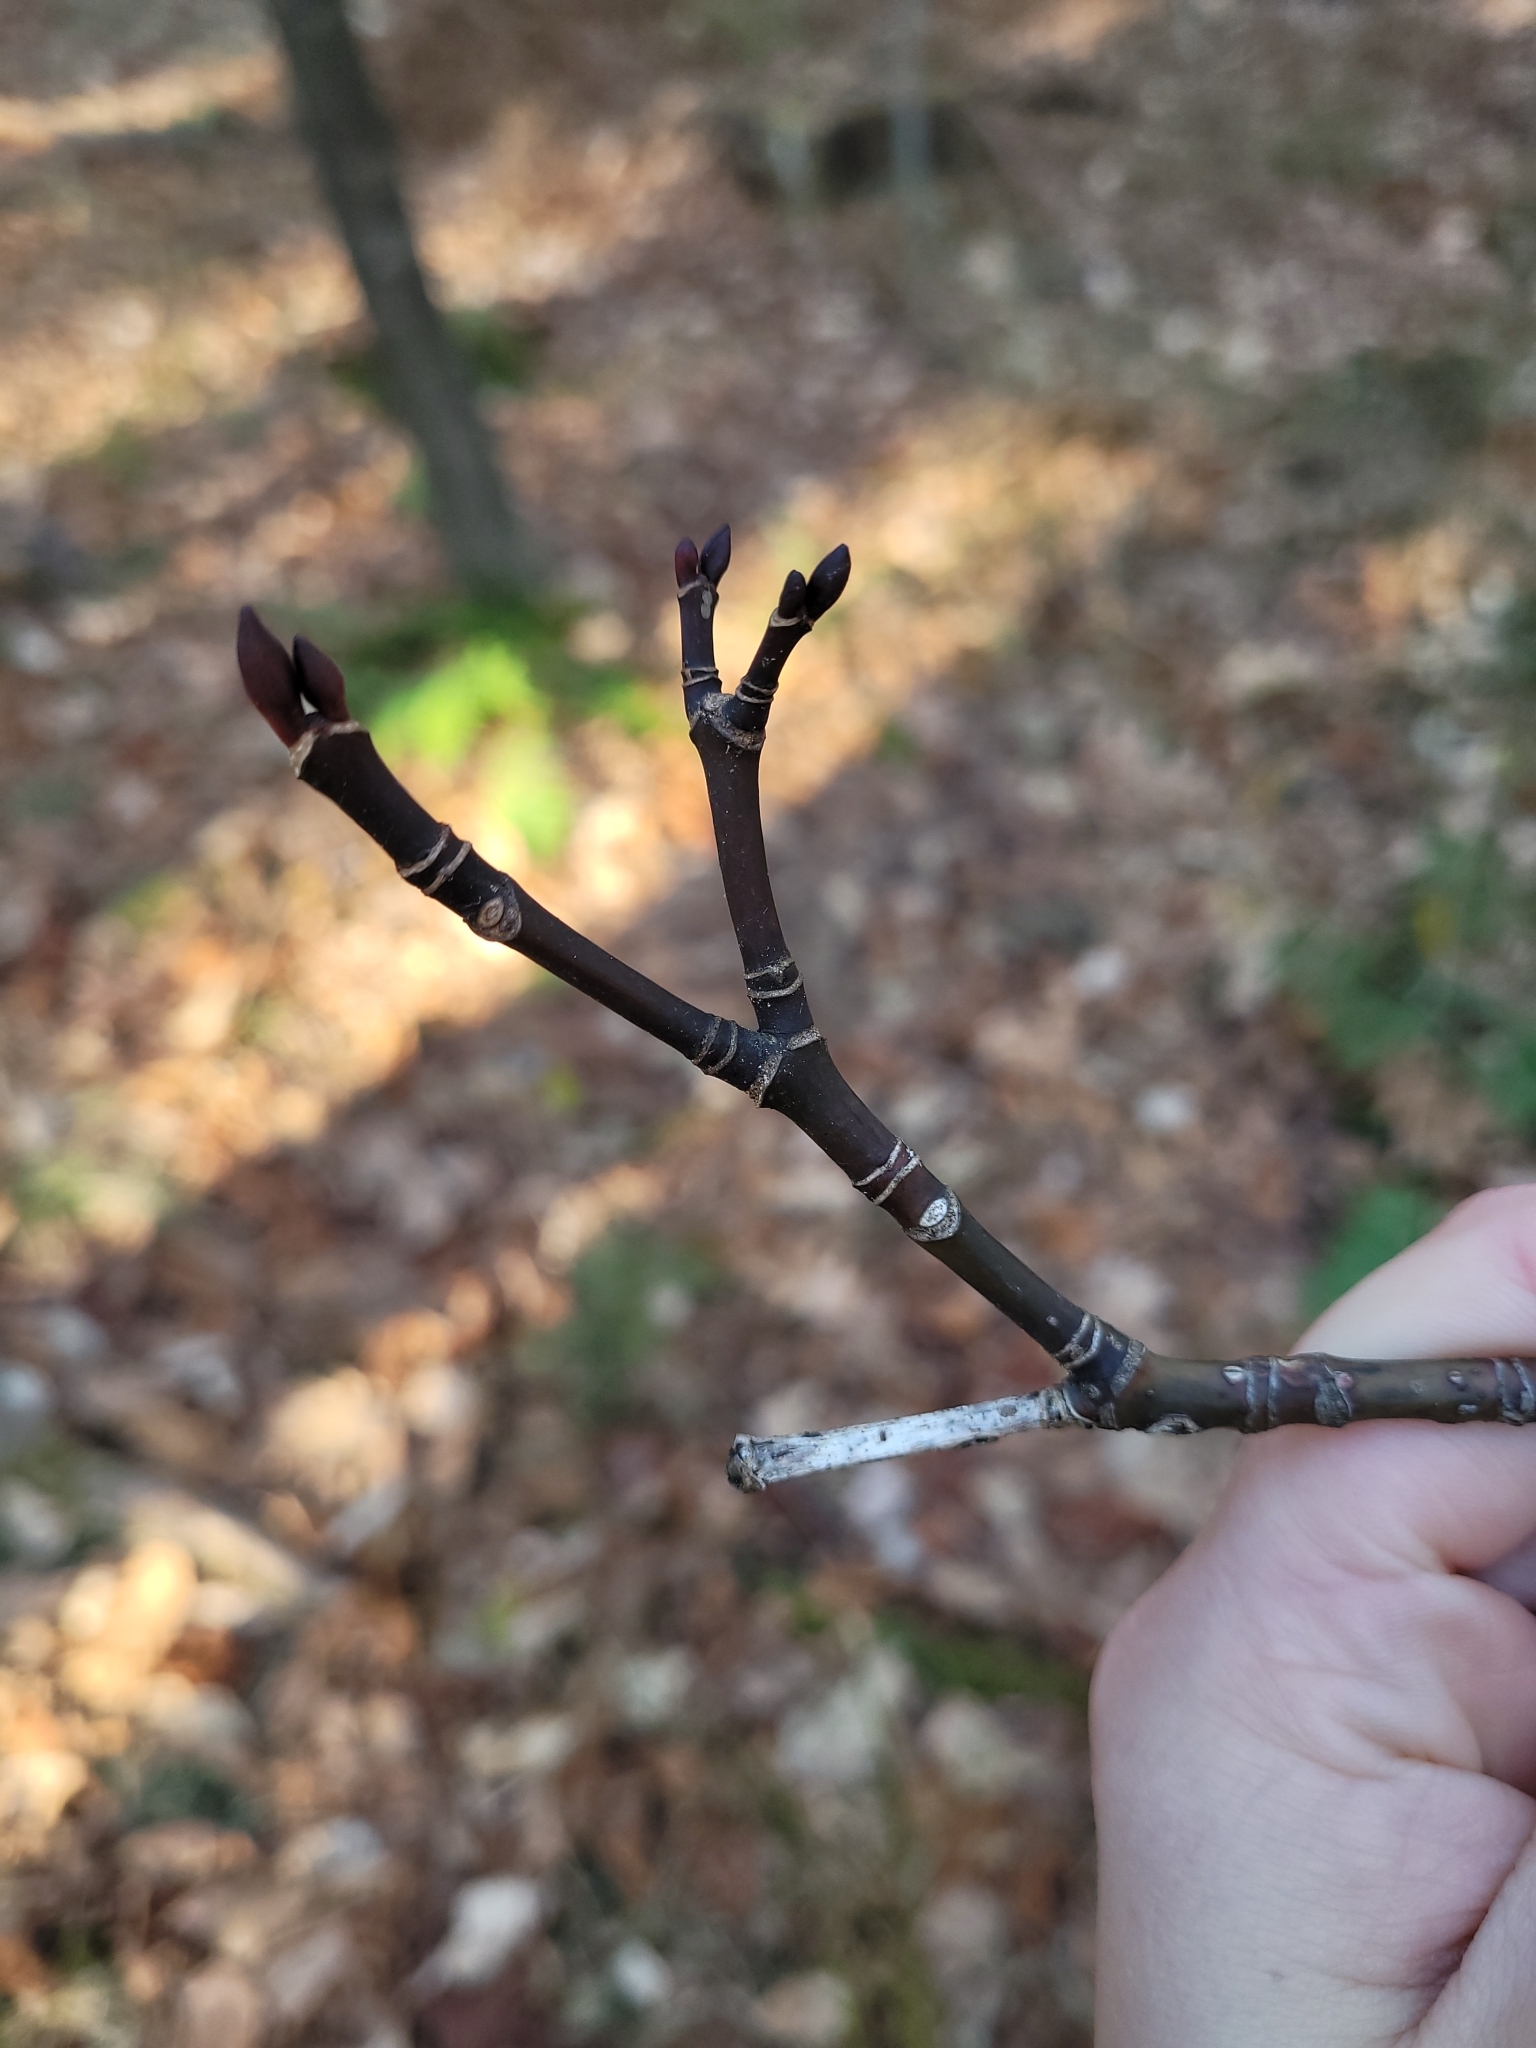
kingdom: Plantae
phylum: Tracheophyta
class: Magnoliopsida
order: Sapindales
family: Sapindaceae
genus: Acer
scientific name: Acer pensylvanicum
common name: Moosewood
